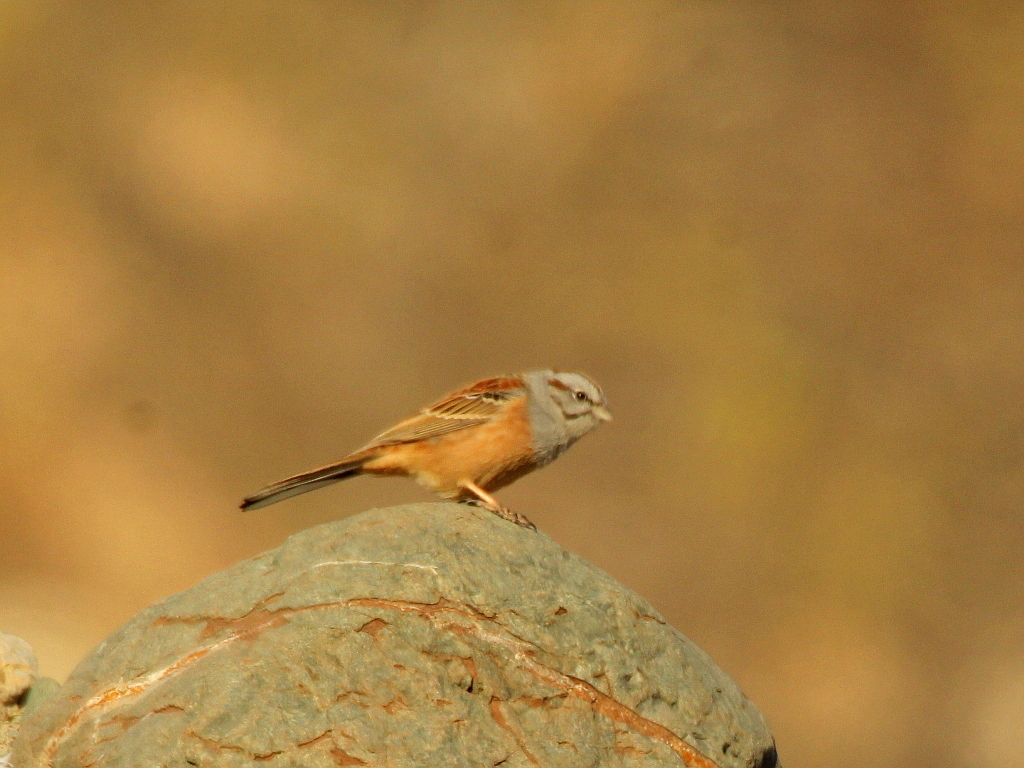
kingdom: Animalia
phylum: Chordata
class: Aves
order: Passeriformes
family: Emberizidae
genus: Emberiza
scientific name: Emberiza godlewskii
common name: Godlewski's bunting
